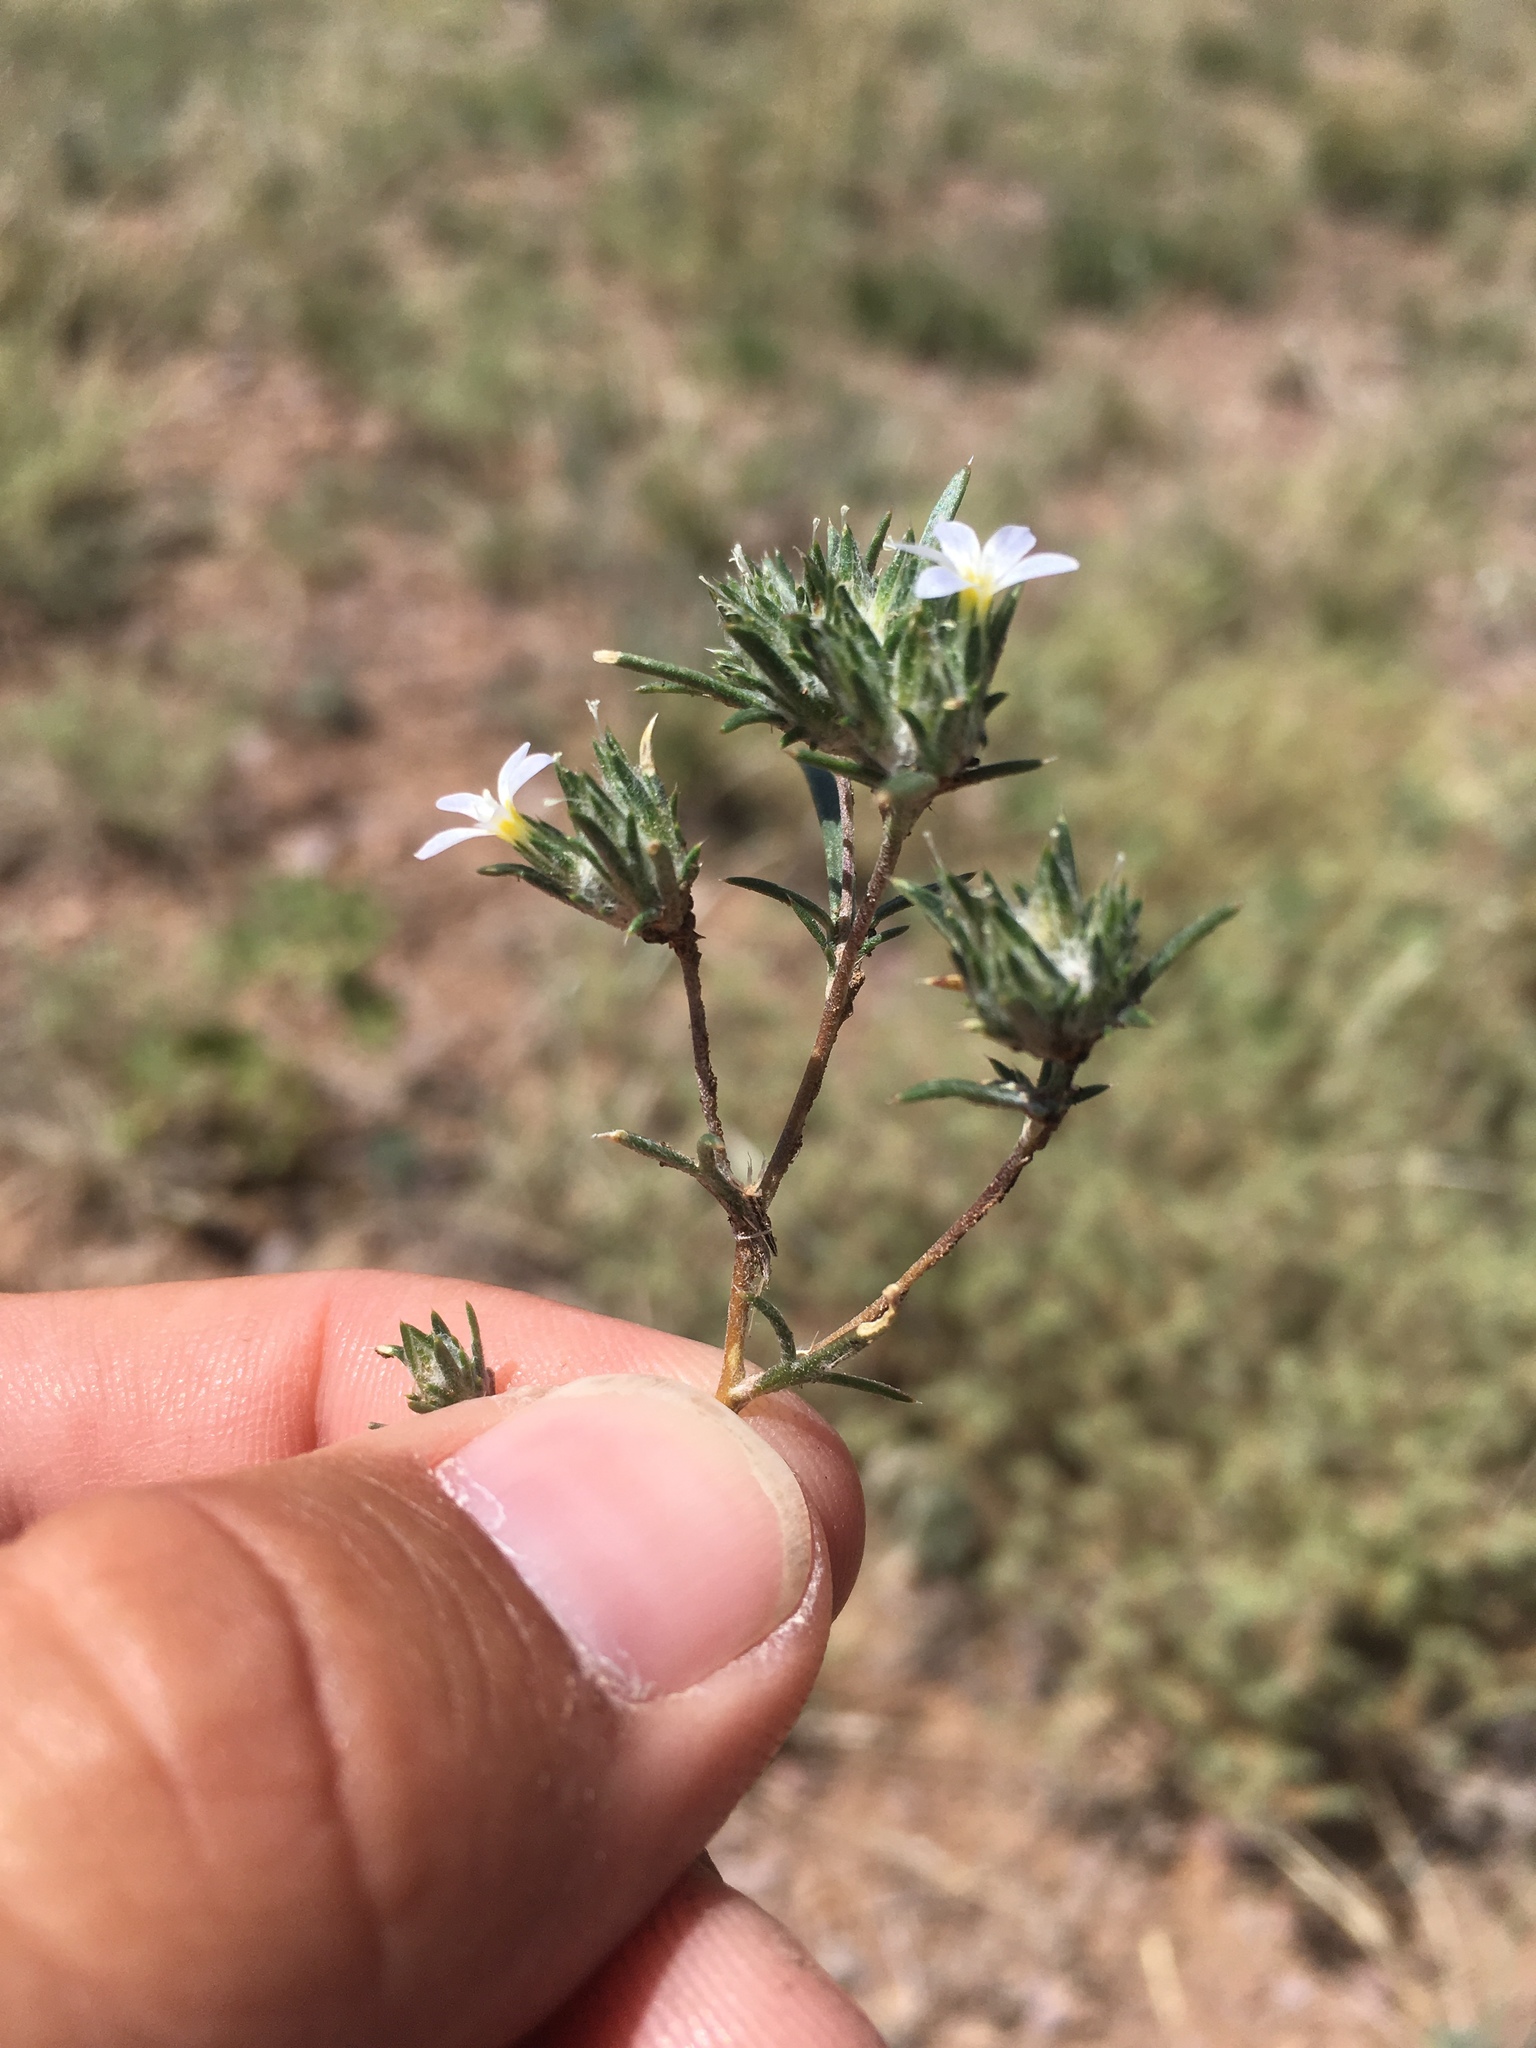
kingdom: Plantae
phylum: Tracheophyta
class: Magnoliopsida
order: Ericales
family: Polemoniaceae
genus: Eriastrum
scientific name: Eriastrum diffusum
